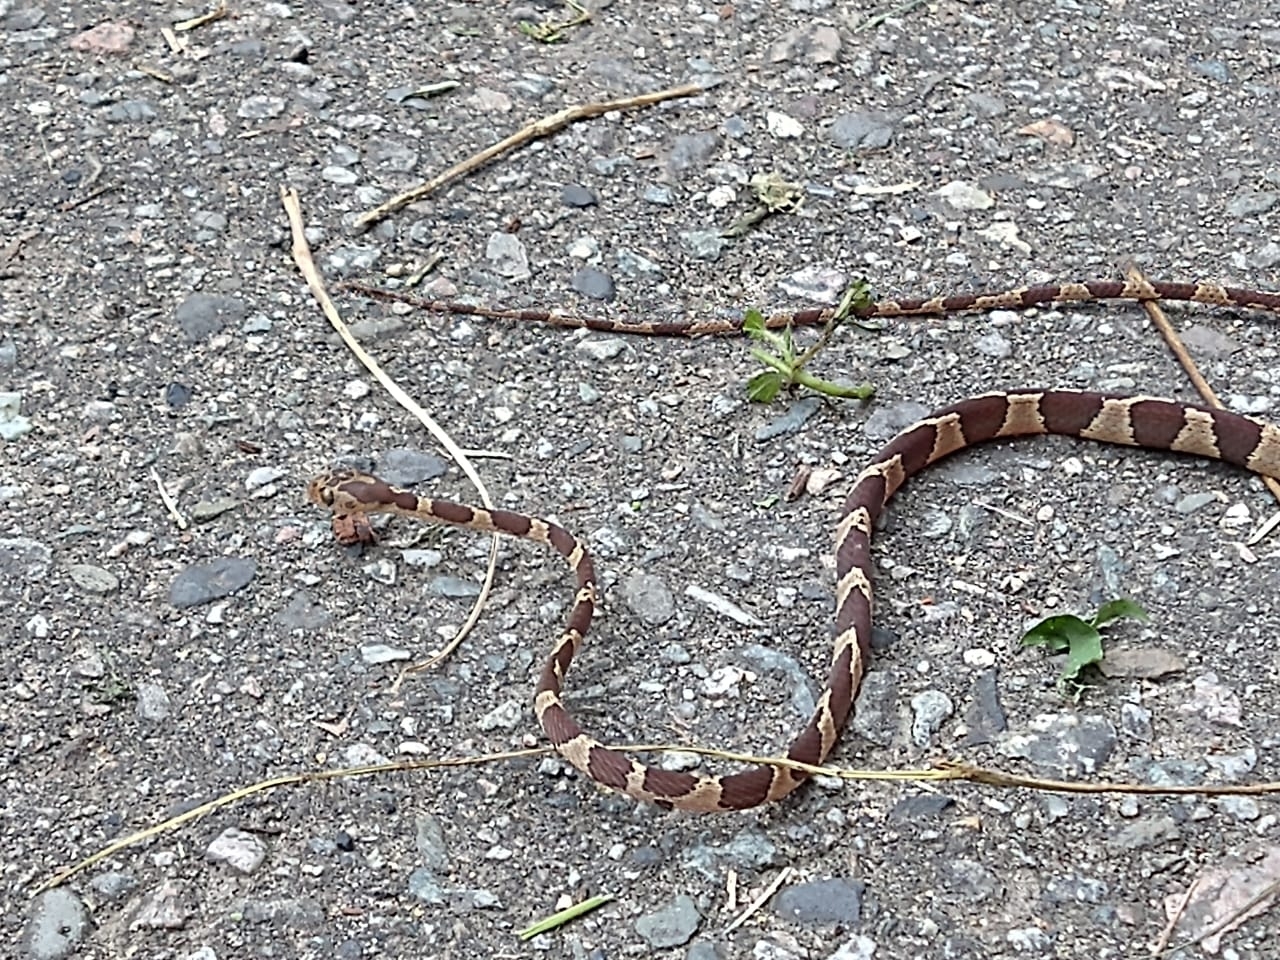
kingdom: Animalia
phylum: Chordata
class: Squamata
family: Colubridae
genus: Imantodes
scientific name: Imantodes cenchoa
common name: Blunthead tree snake
